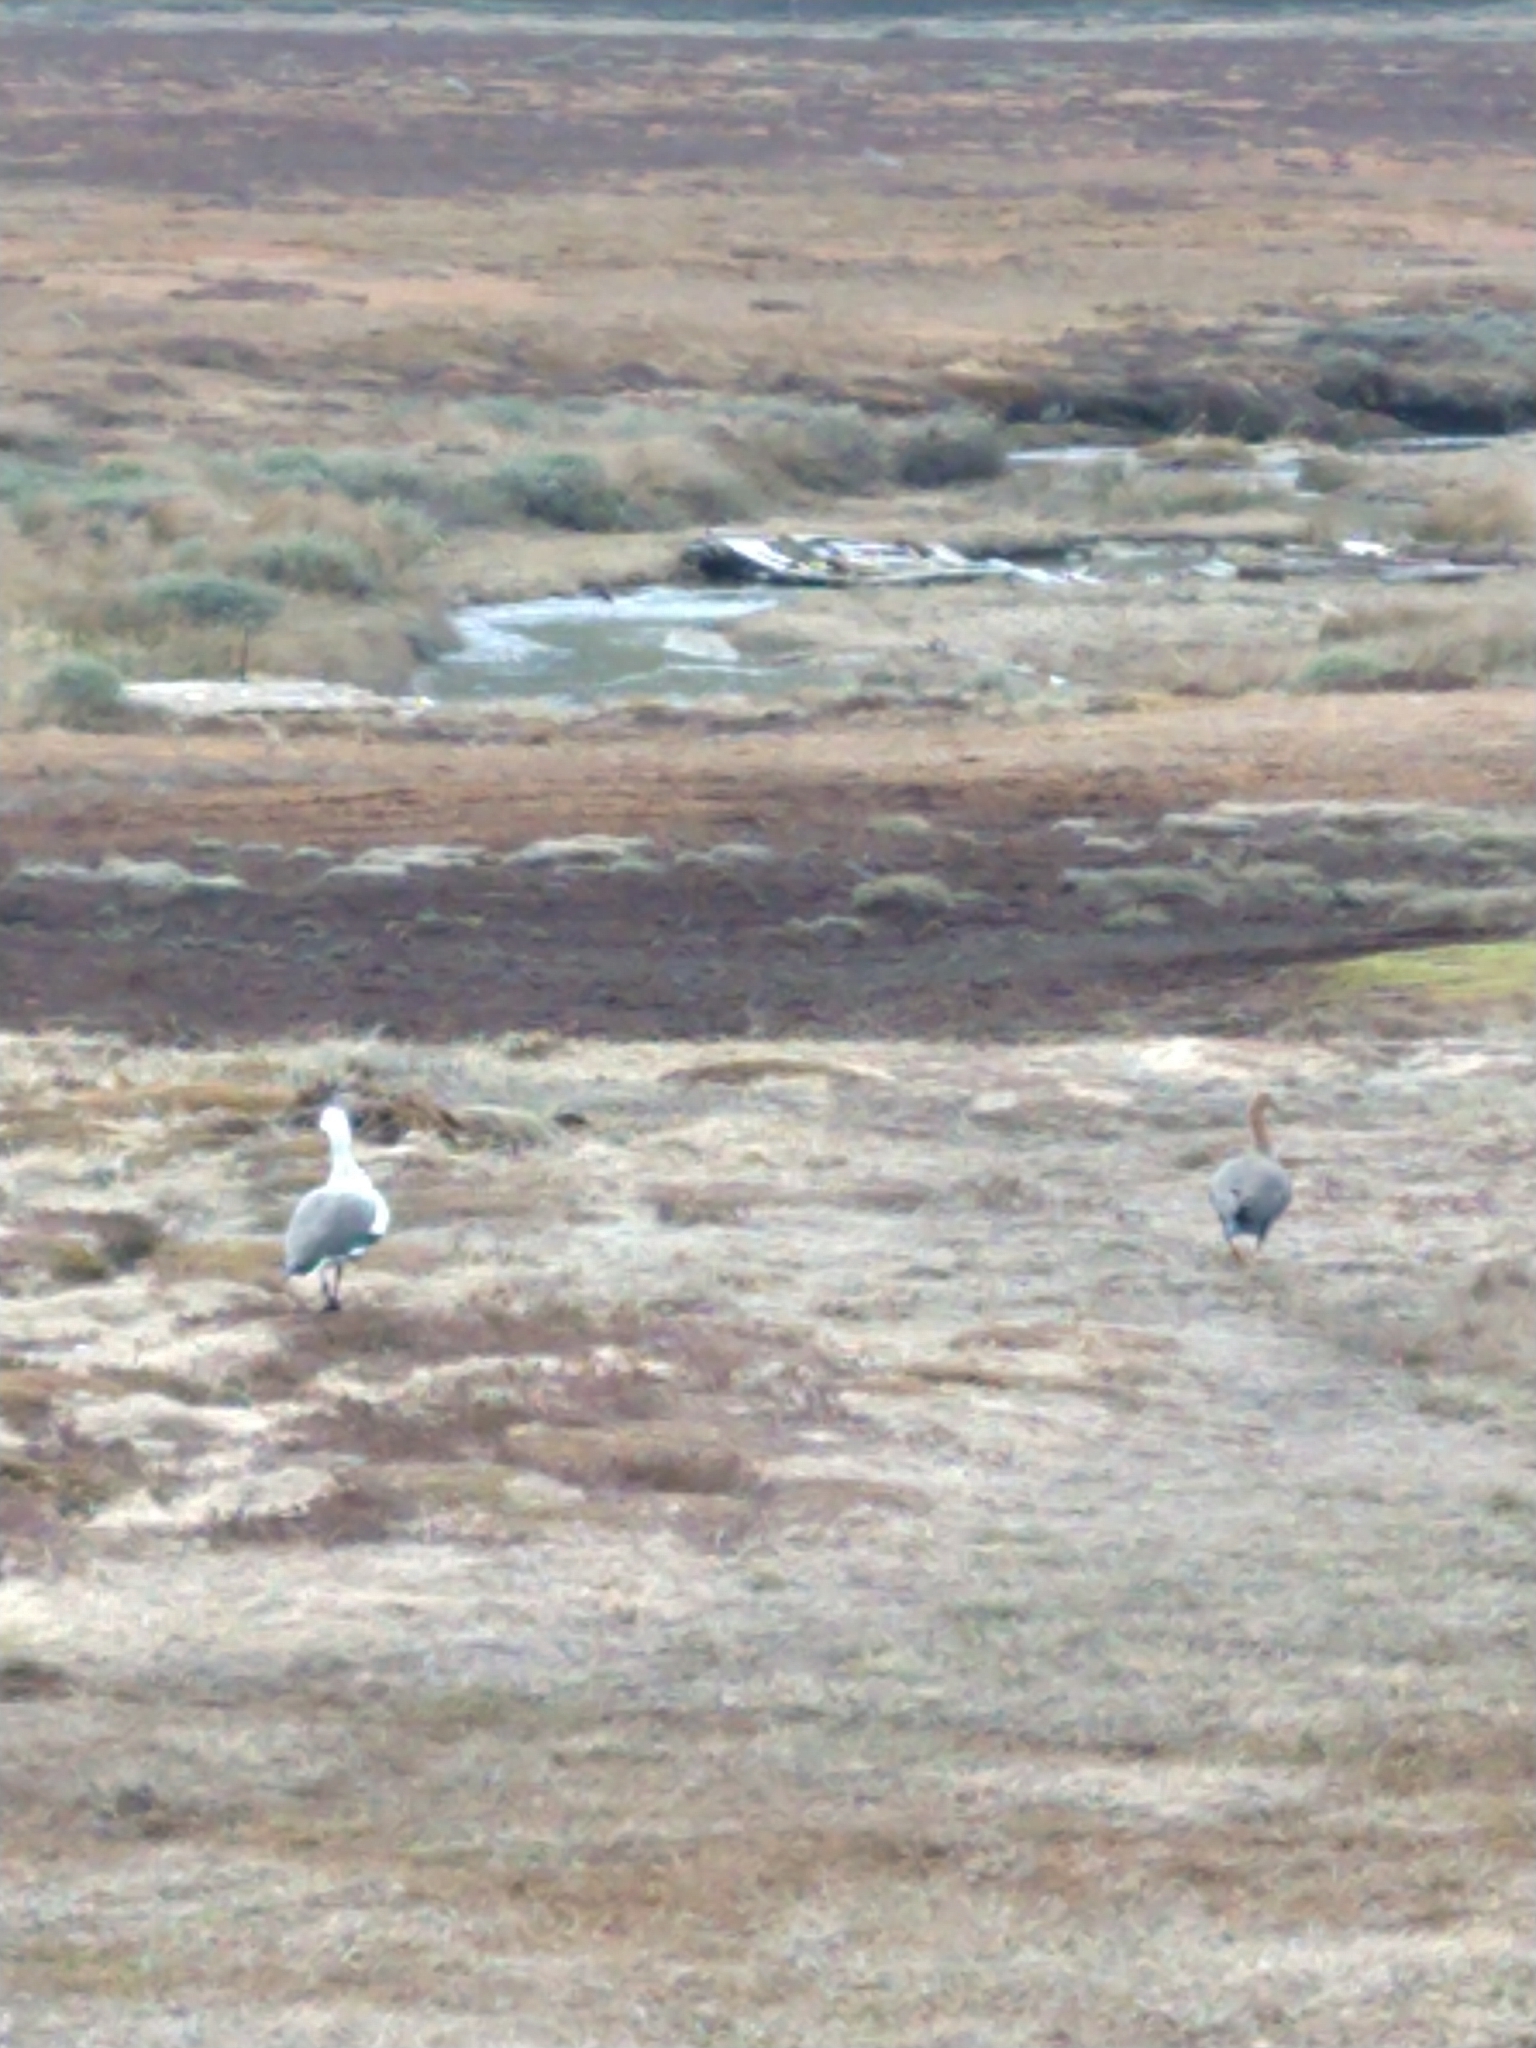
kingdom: Animalia
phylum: Chordata
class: Aves
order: Anseriformes
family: Anatidae
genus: Chloephaga
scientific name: Chloephaga picta
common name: Upland goose
